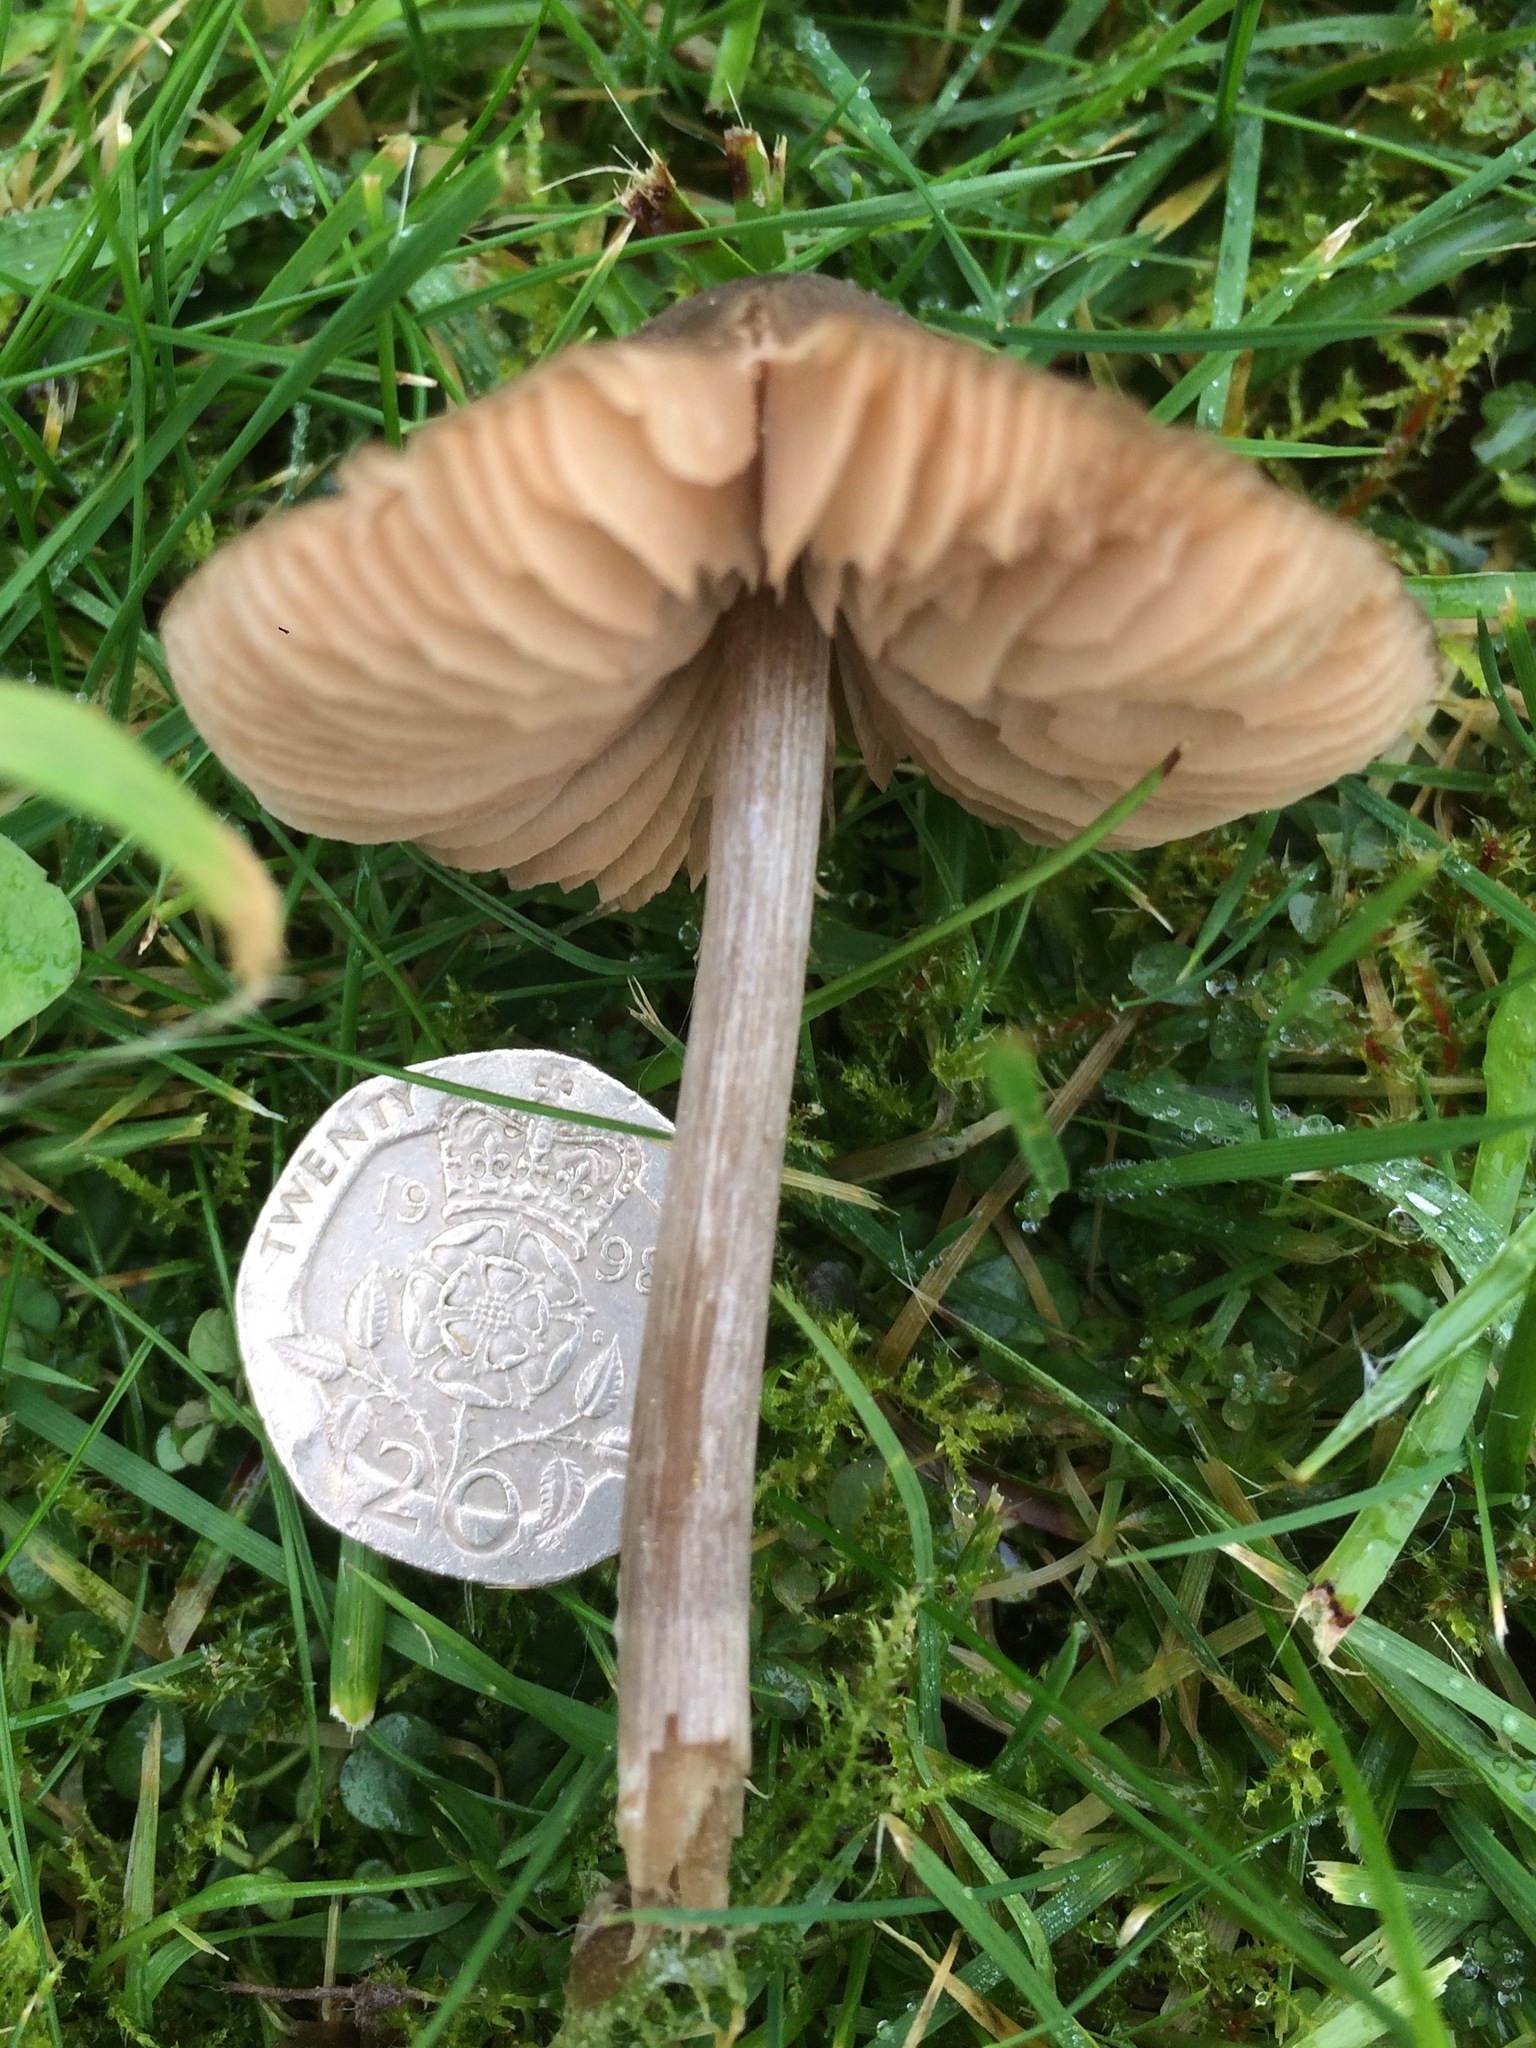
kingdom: Fungi
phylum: Basidiomycota
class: Agaricomycetes
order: Agaricales
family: Entolomataceae
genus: Entoloma
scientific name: Entoloma conferendum
